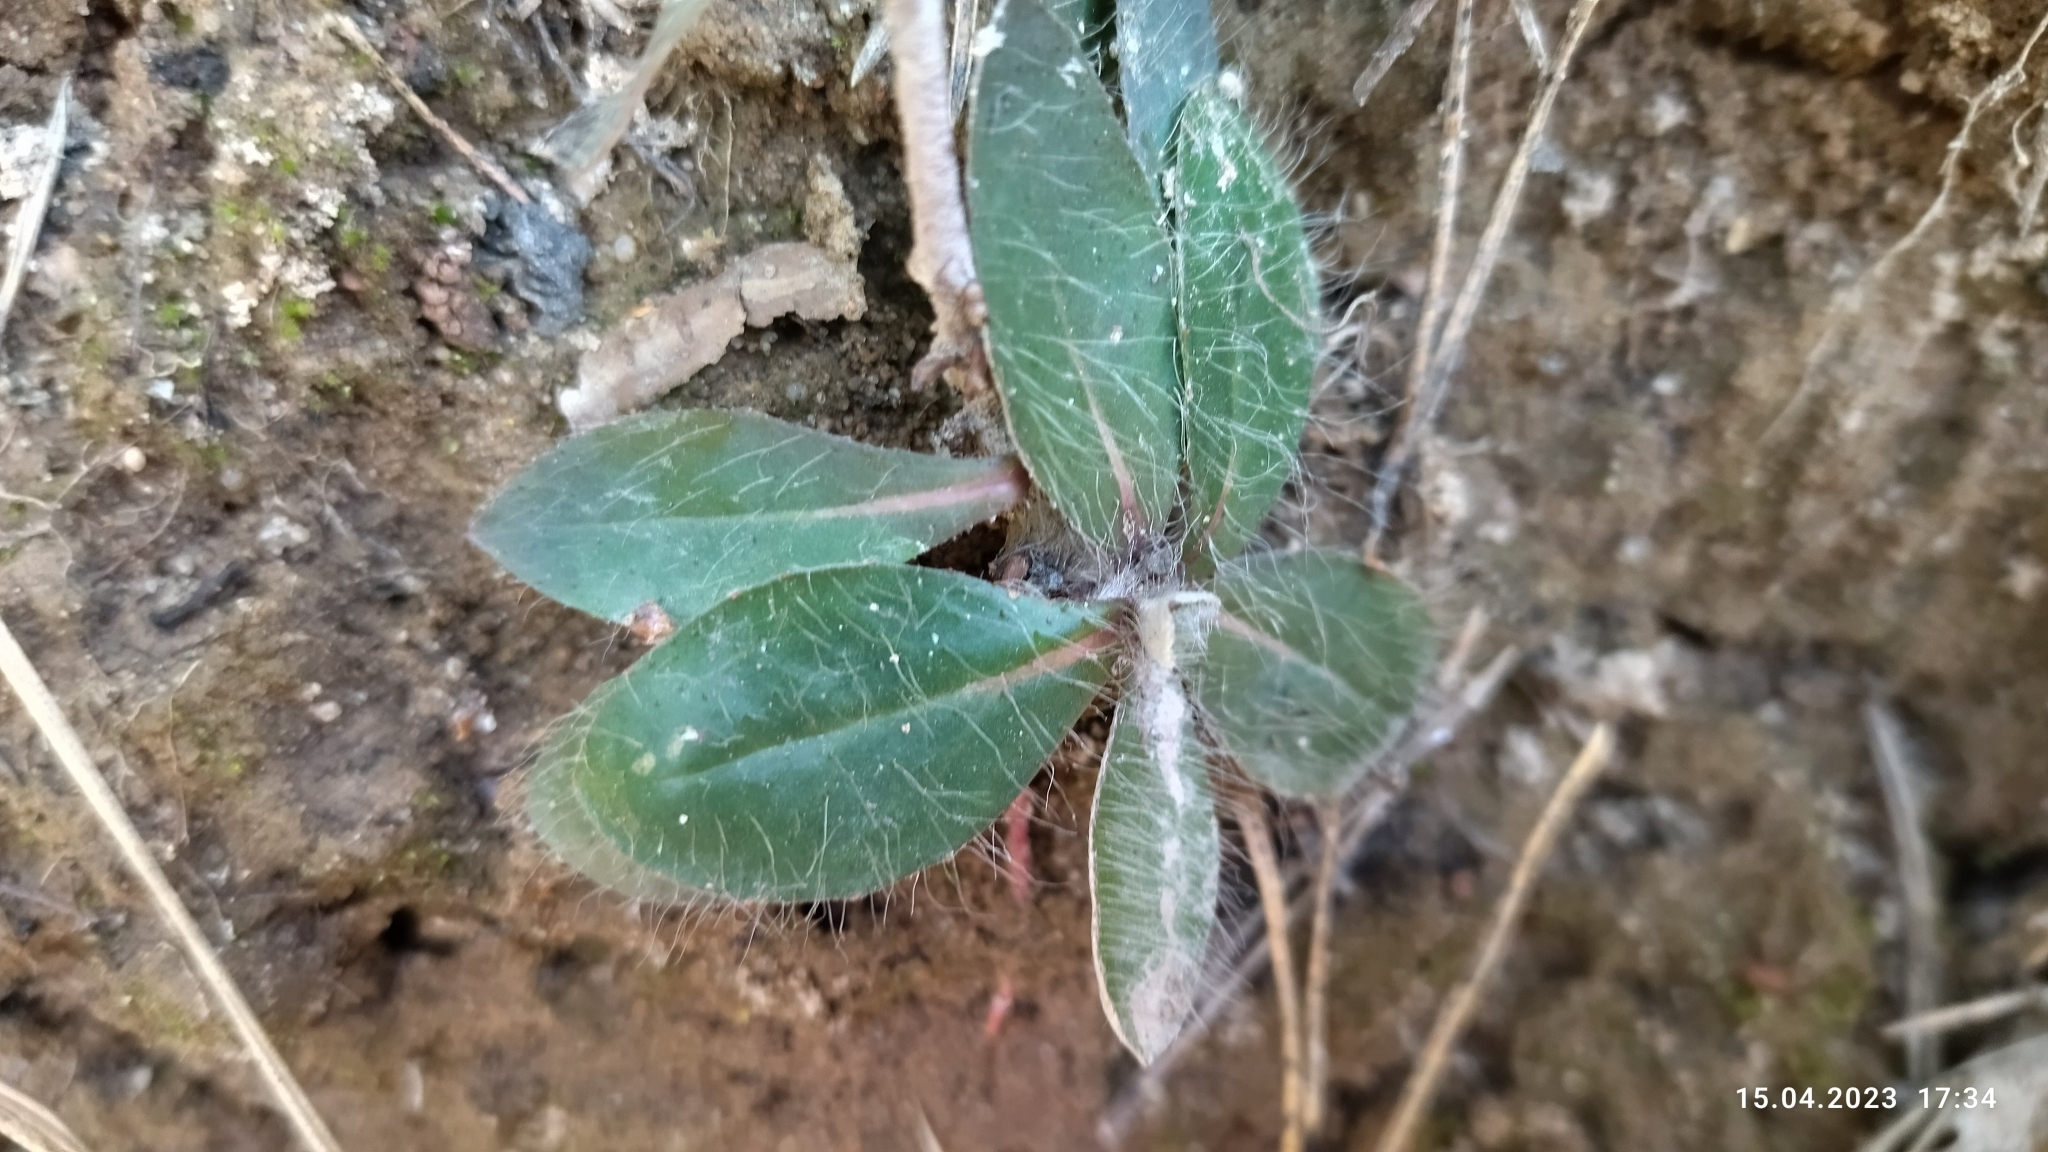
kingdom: Plantae
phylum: Tracheophyta
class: Magnoliopsida
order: Asterales
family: Asteraceae
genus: Pilosella
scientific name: Pilosella officinarum
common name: Mouse-ear hawkweed
